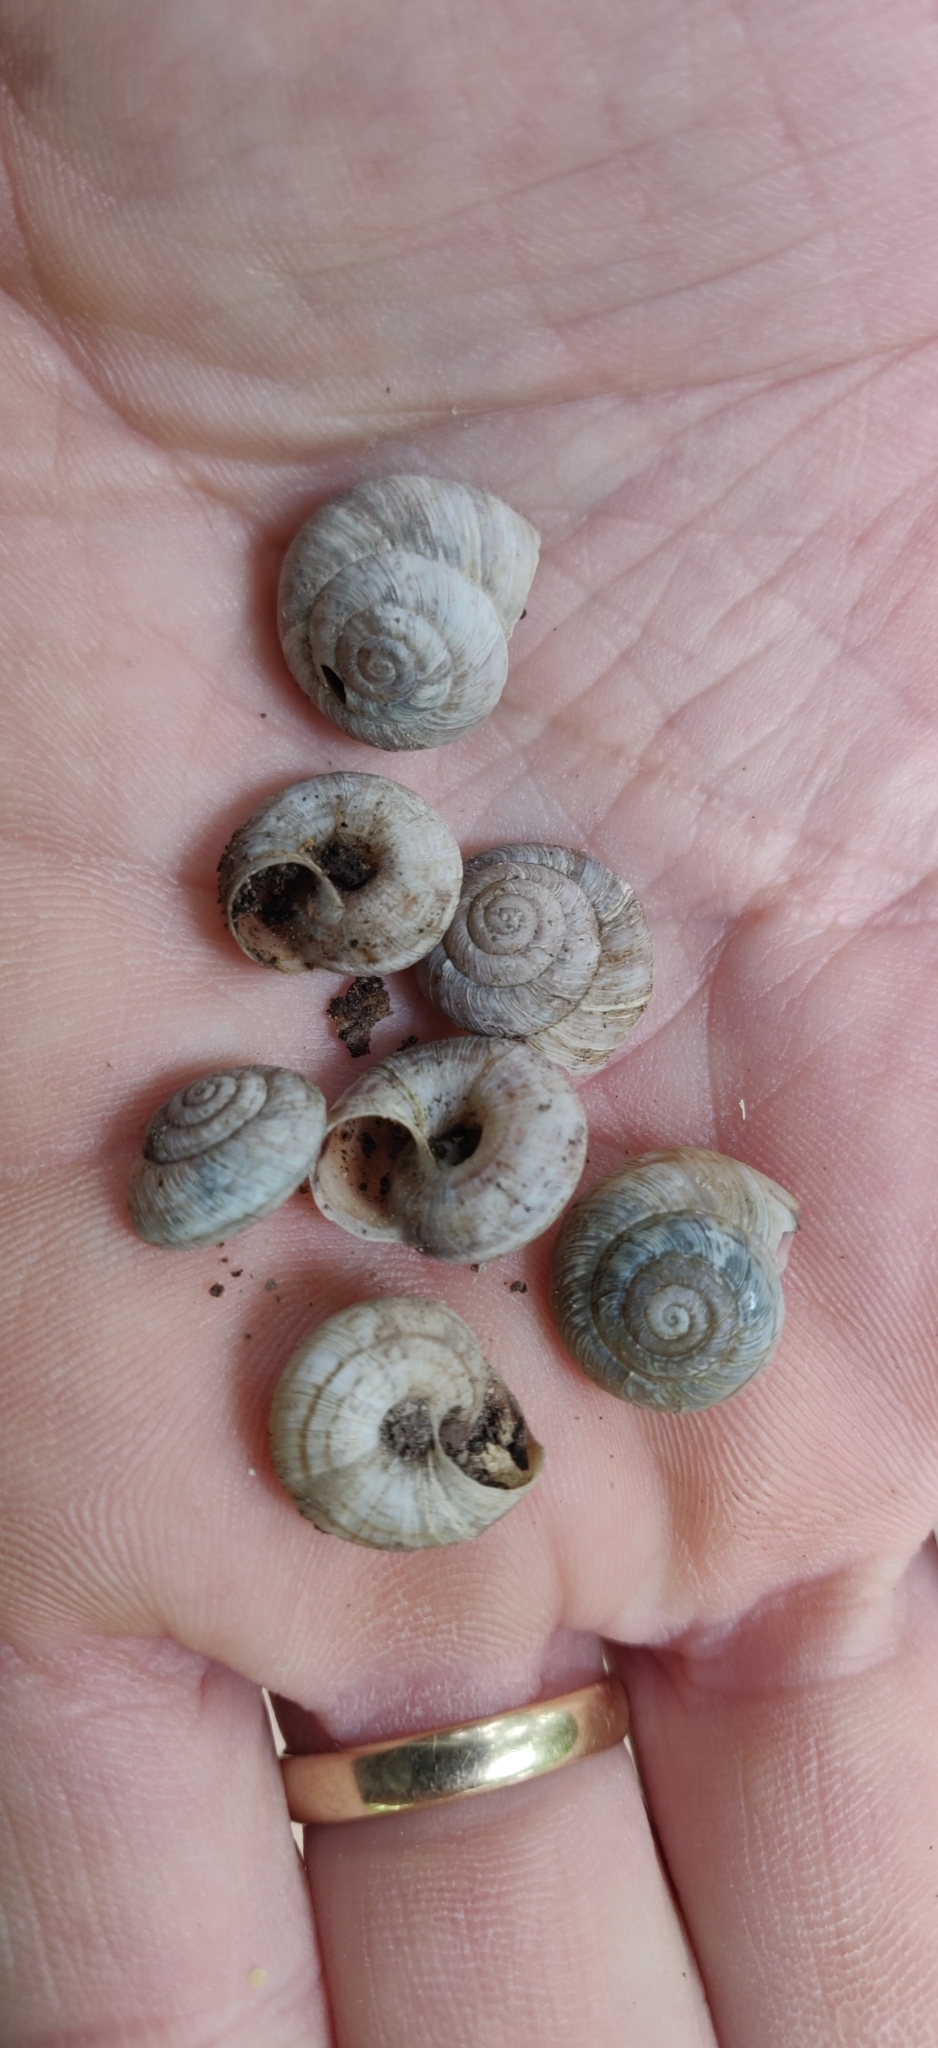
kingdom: Animalia
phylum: Mollusca
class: Gastropoda
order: Stylommatophora
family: Oreohelicidae
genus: Oreohelix
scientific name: Oreohelix strigosa
